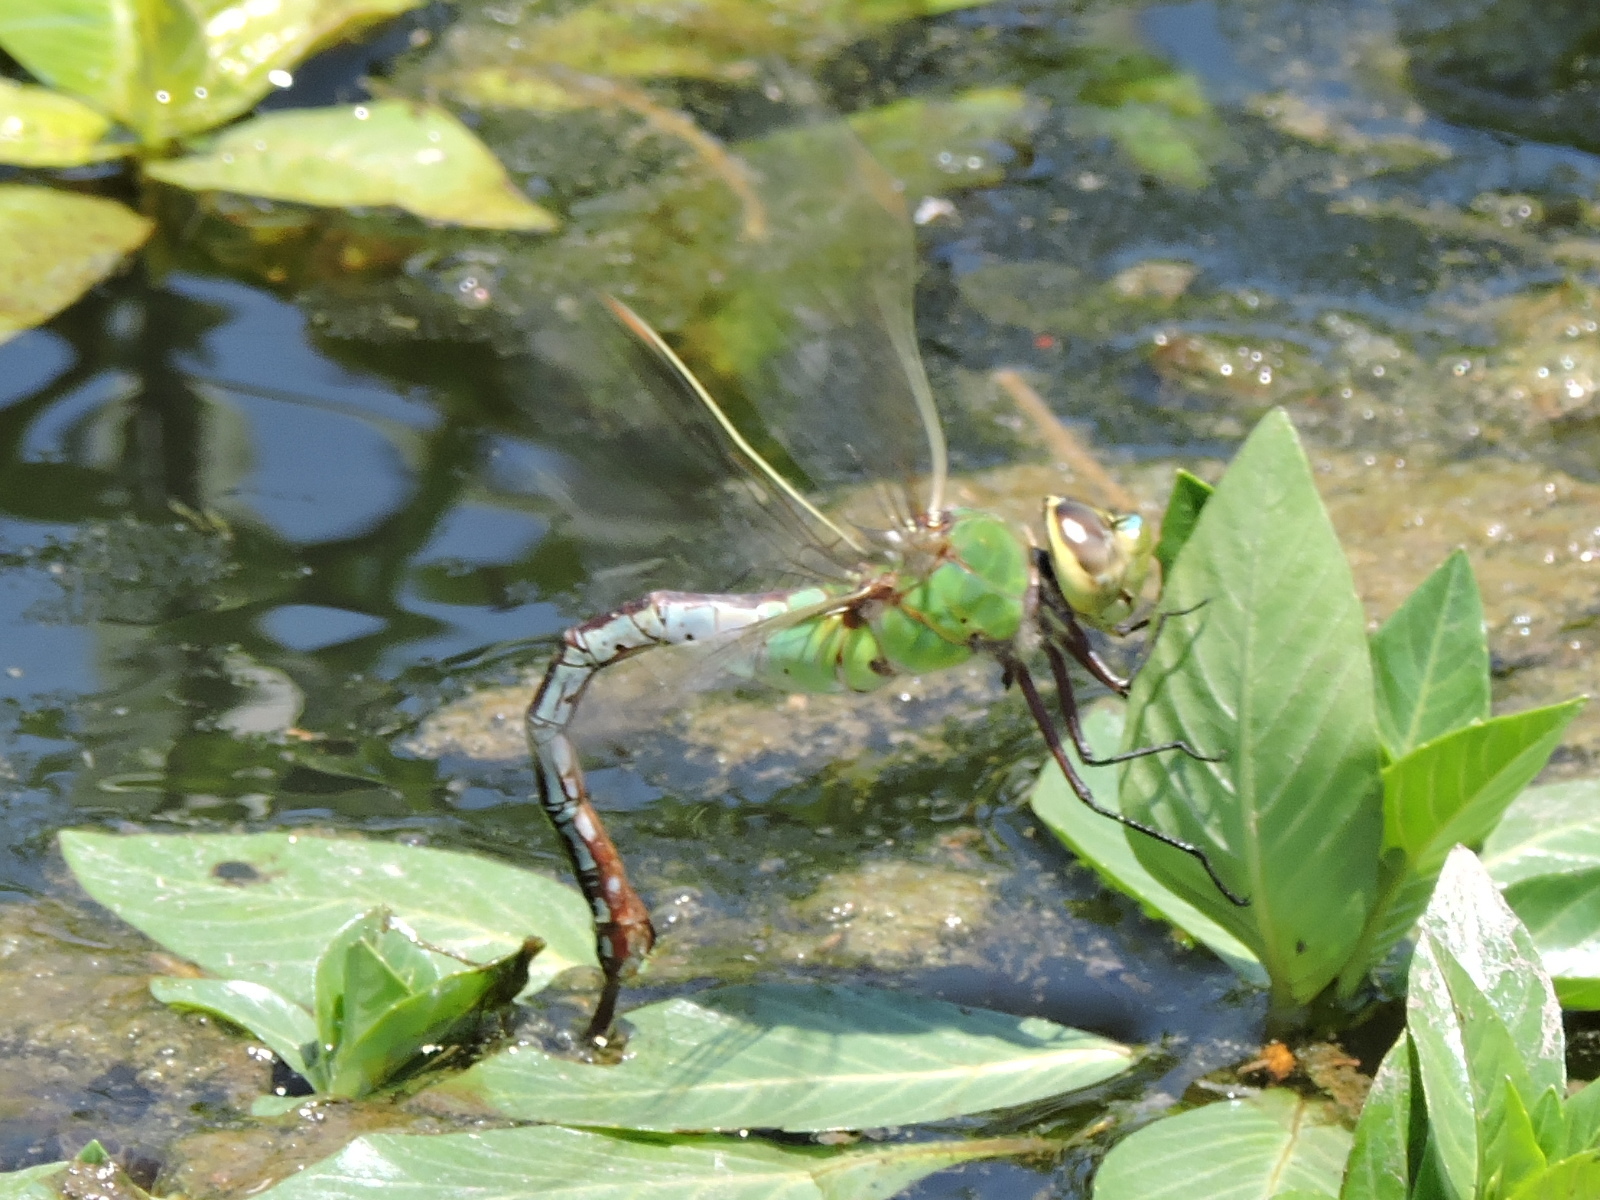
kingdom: Animalia
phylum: Arthropoda
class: Insecta
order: Odonata
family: Aeshnidae
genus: Anax
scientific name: Anax junius
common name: Common green darner
